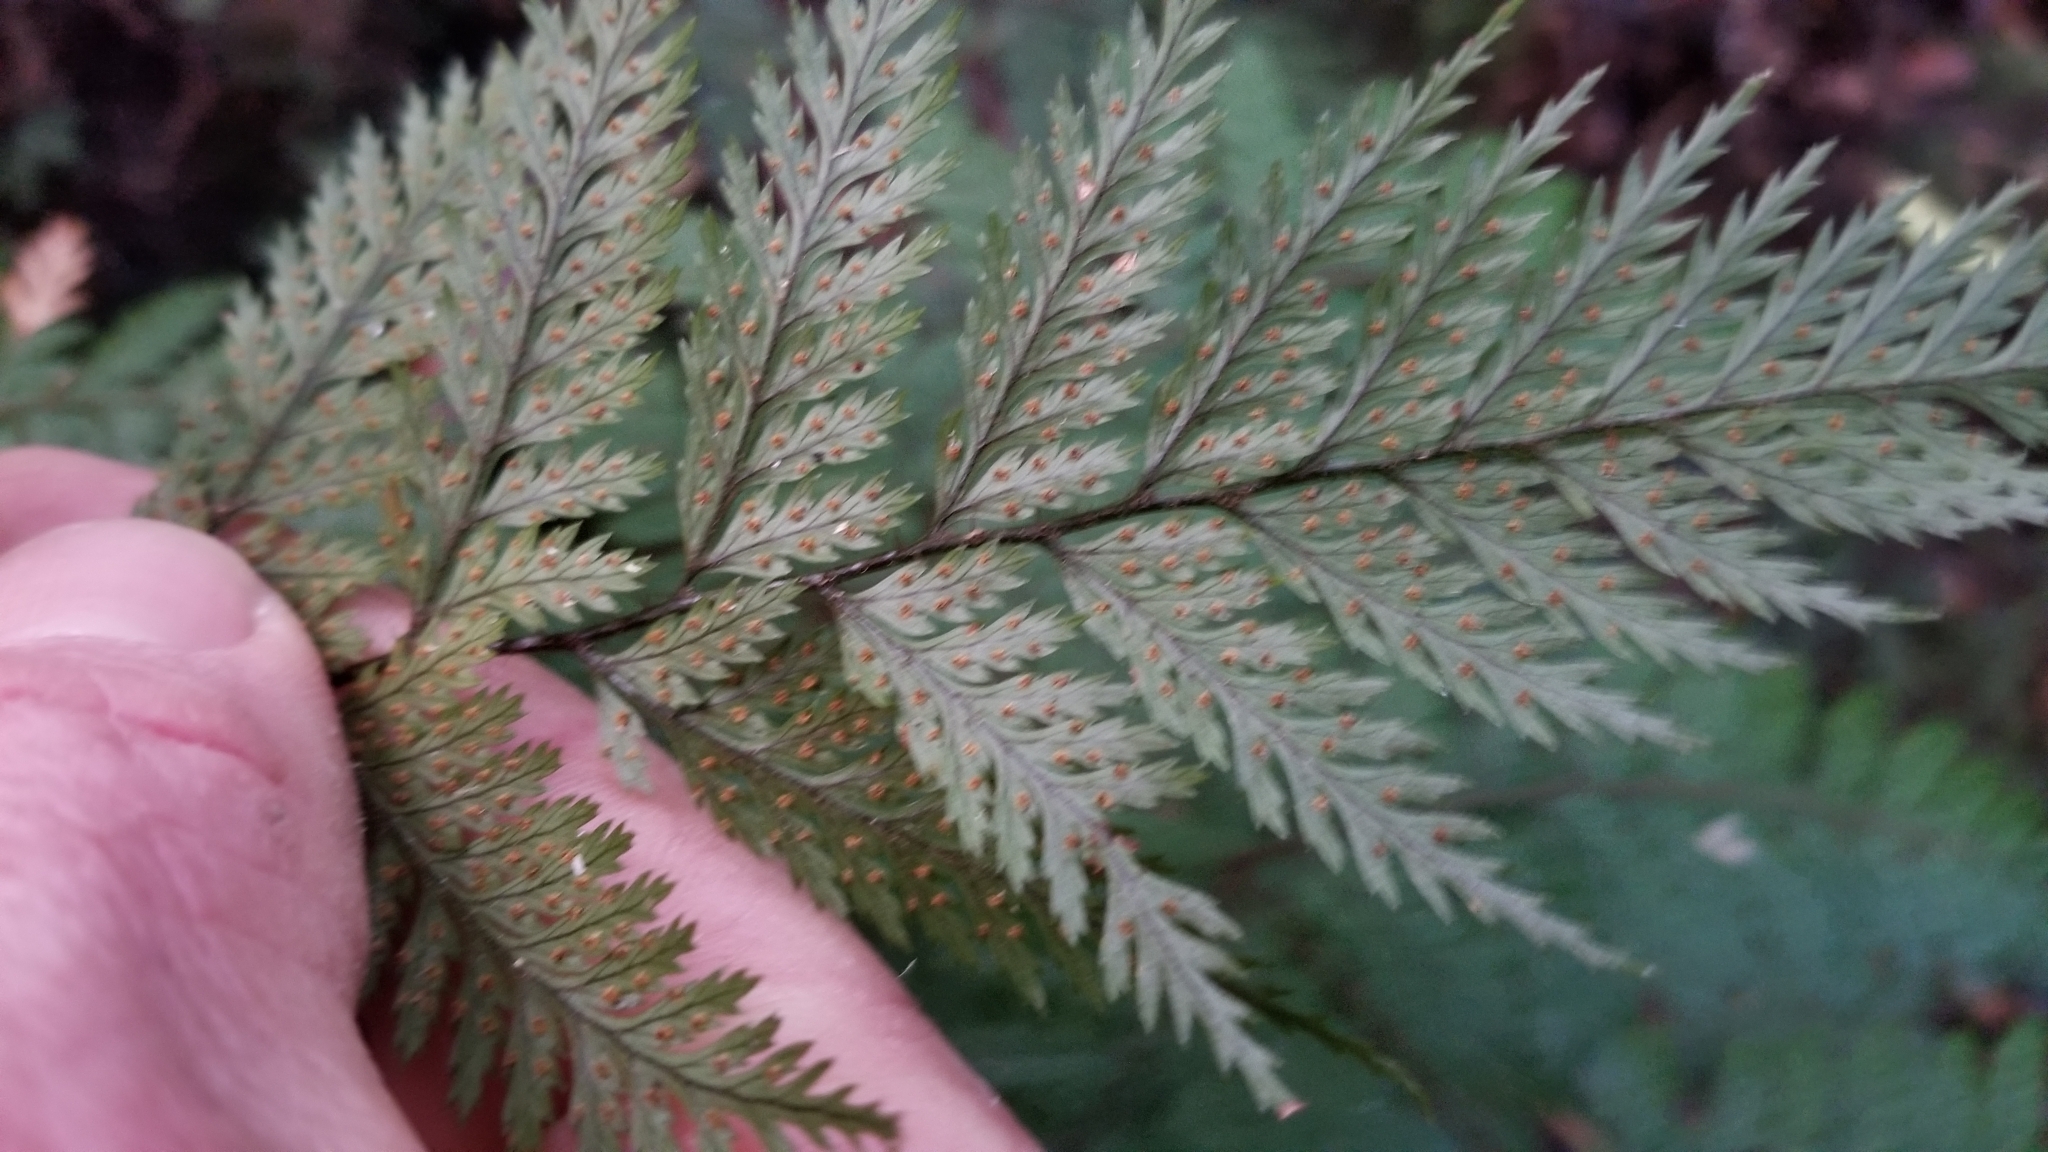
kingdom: Plantae
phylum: Tracheophyta
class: Polypodiopsida
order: Polypodiales
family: Dryopteridaceae
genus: Lastreopsis
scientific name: Lastreopsis hispida
